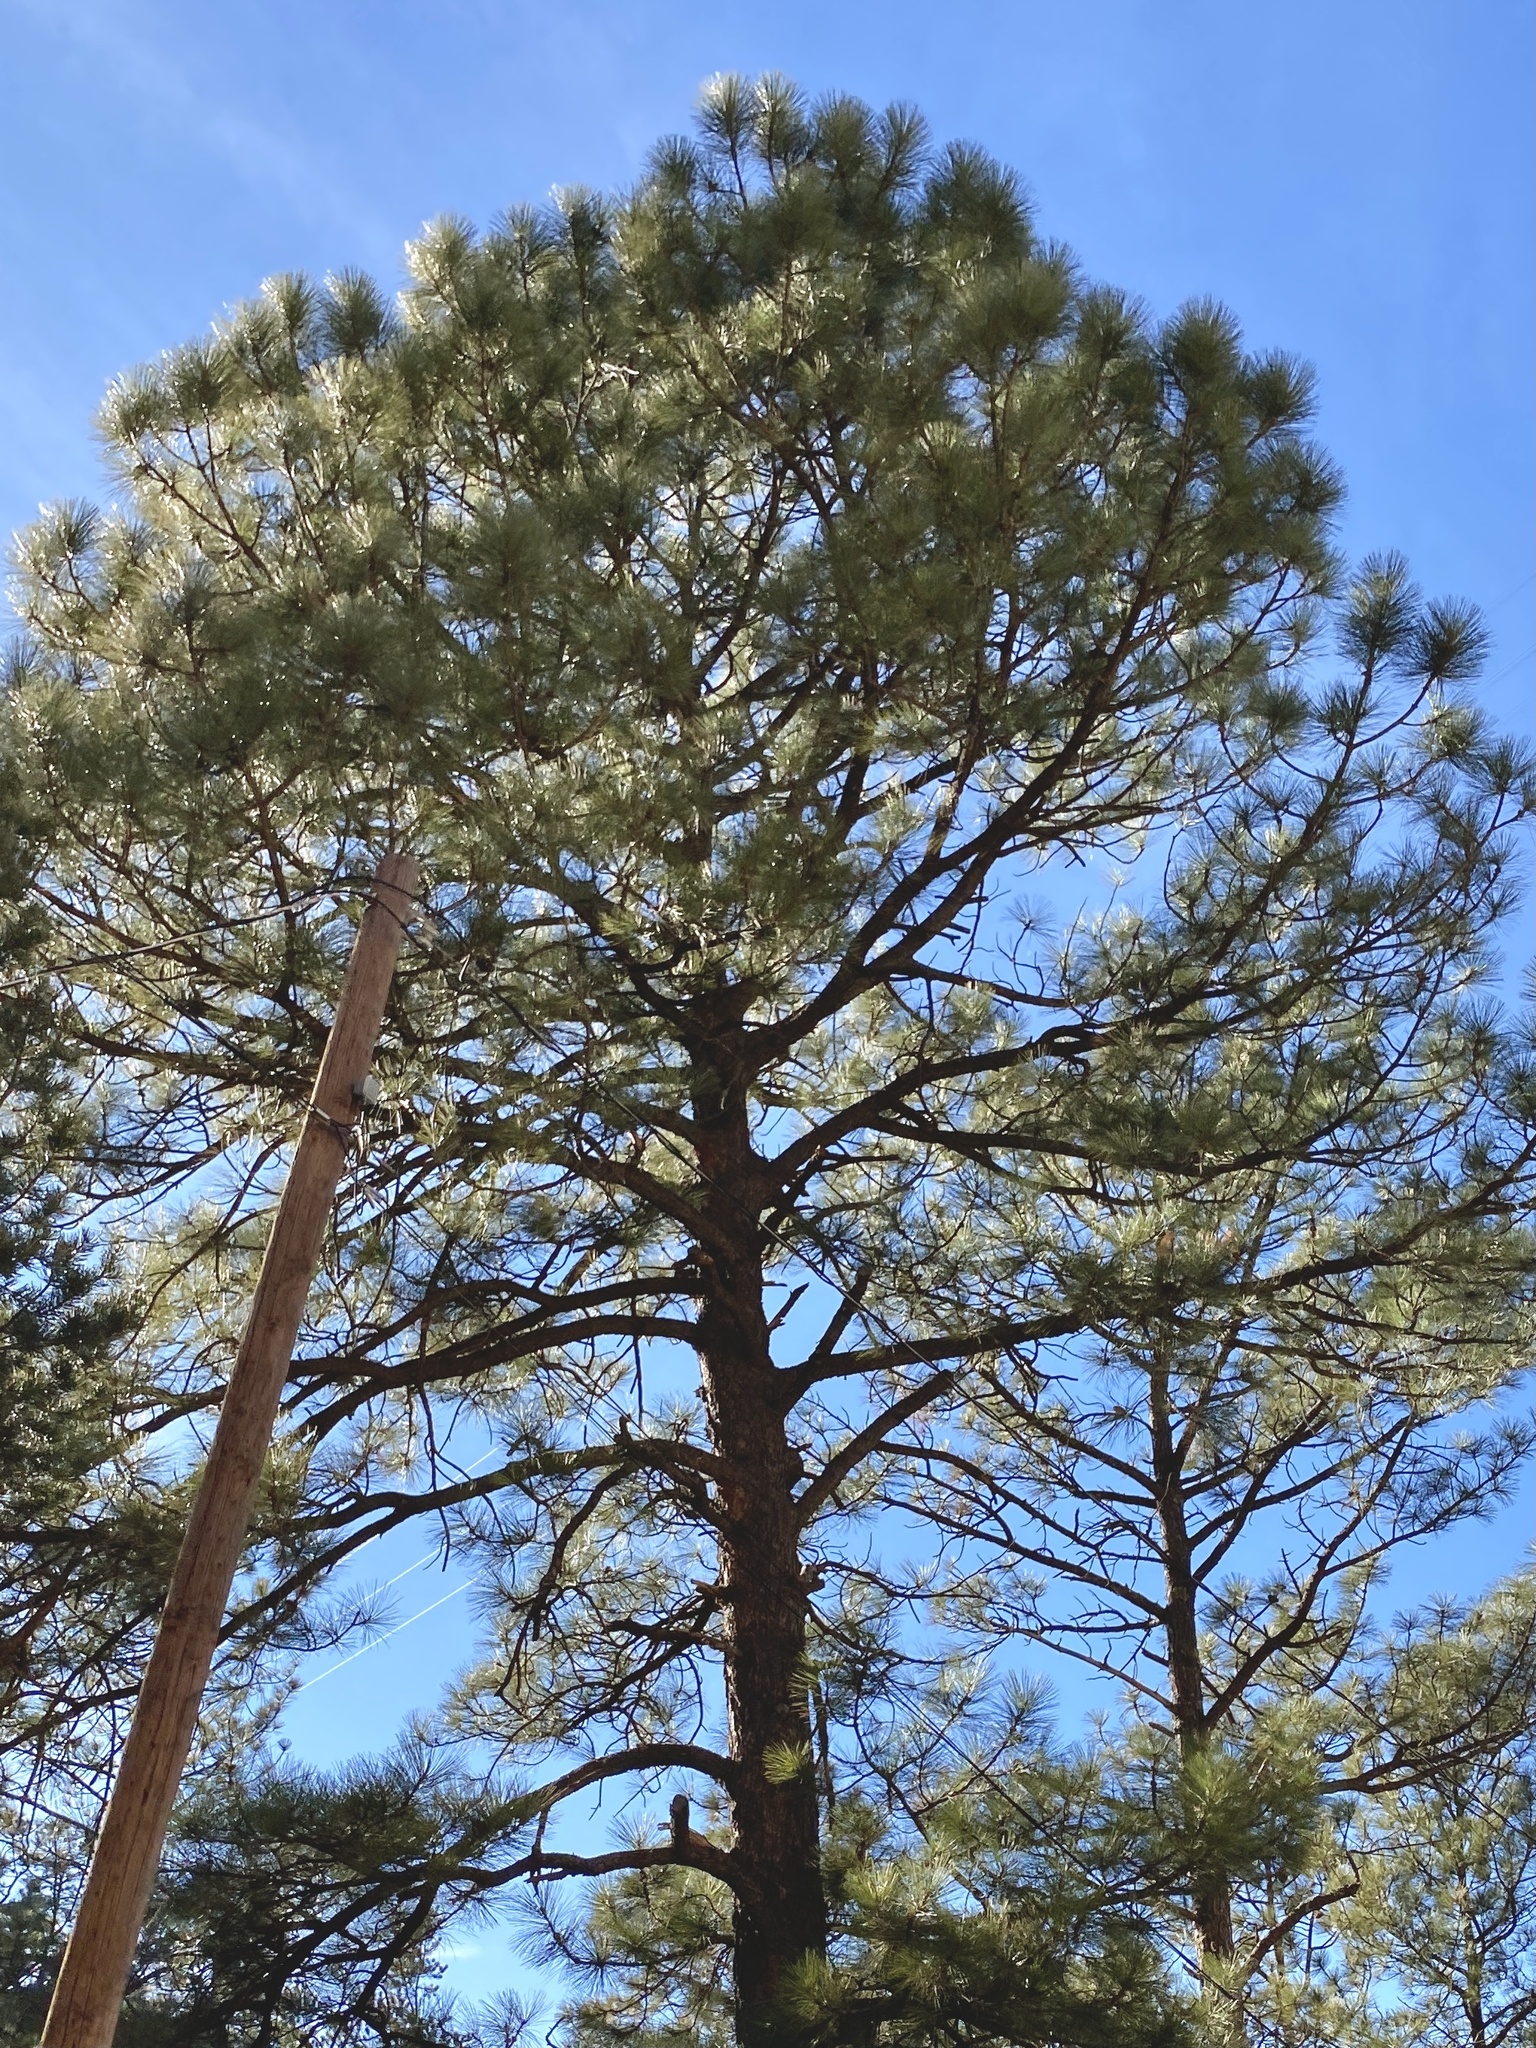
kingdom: Plantae
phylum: Tracheophyta
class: Pinopsida
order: Pinales
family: Pinaceae
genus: Pinus
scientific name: Pinus ponderosa
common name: Western yellow-pine
